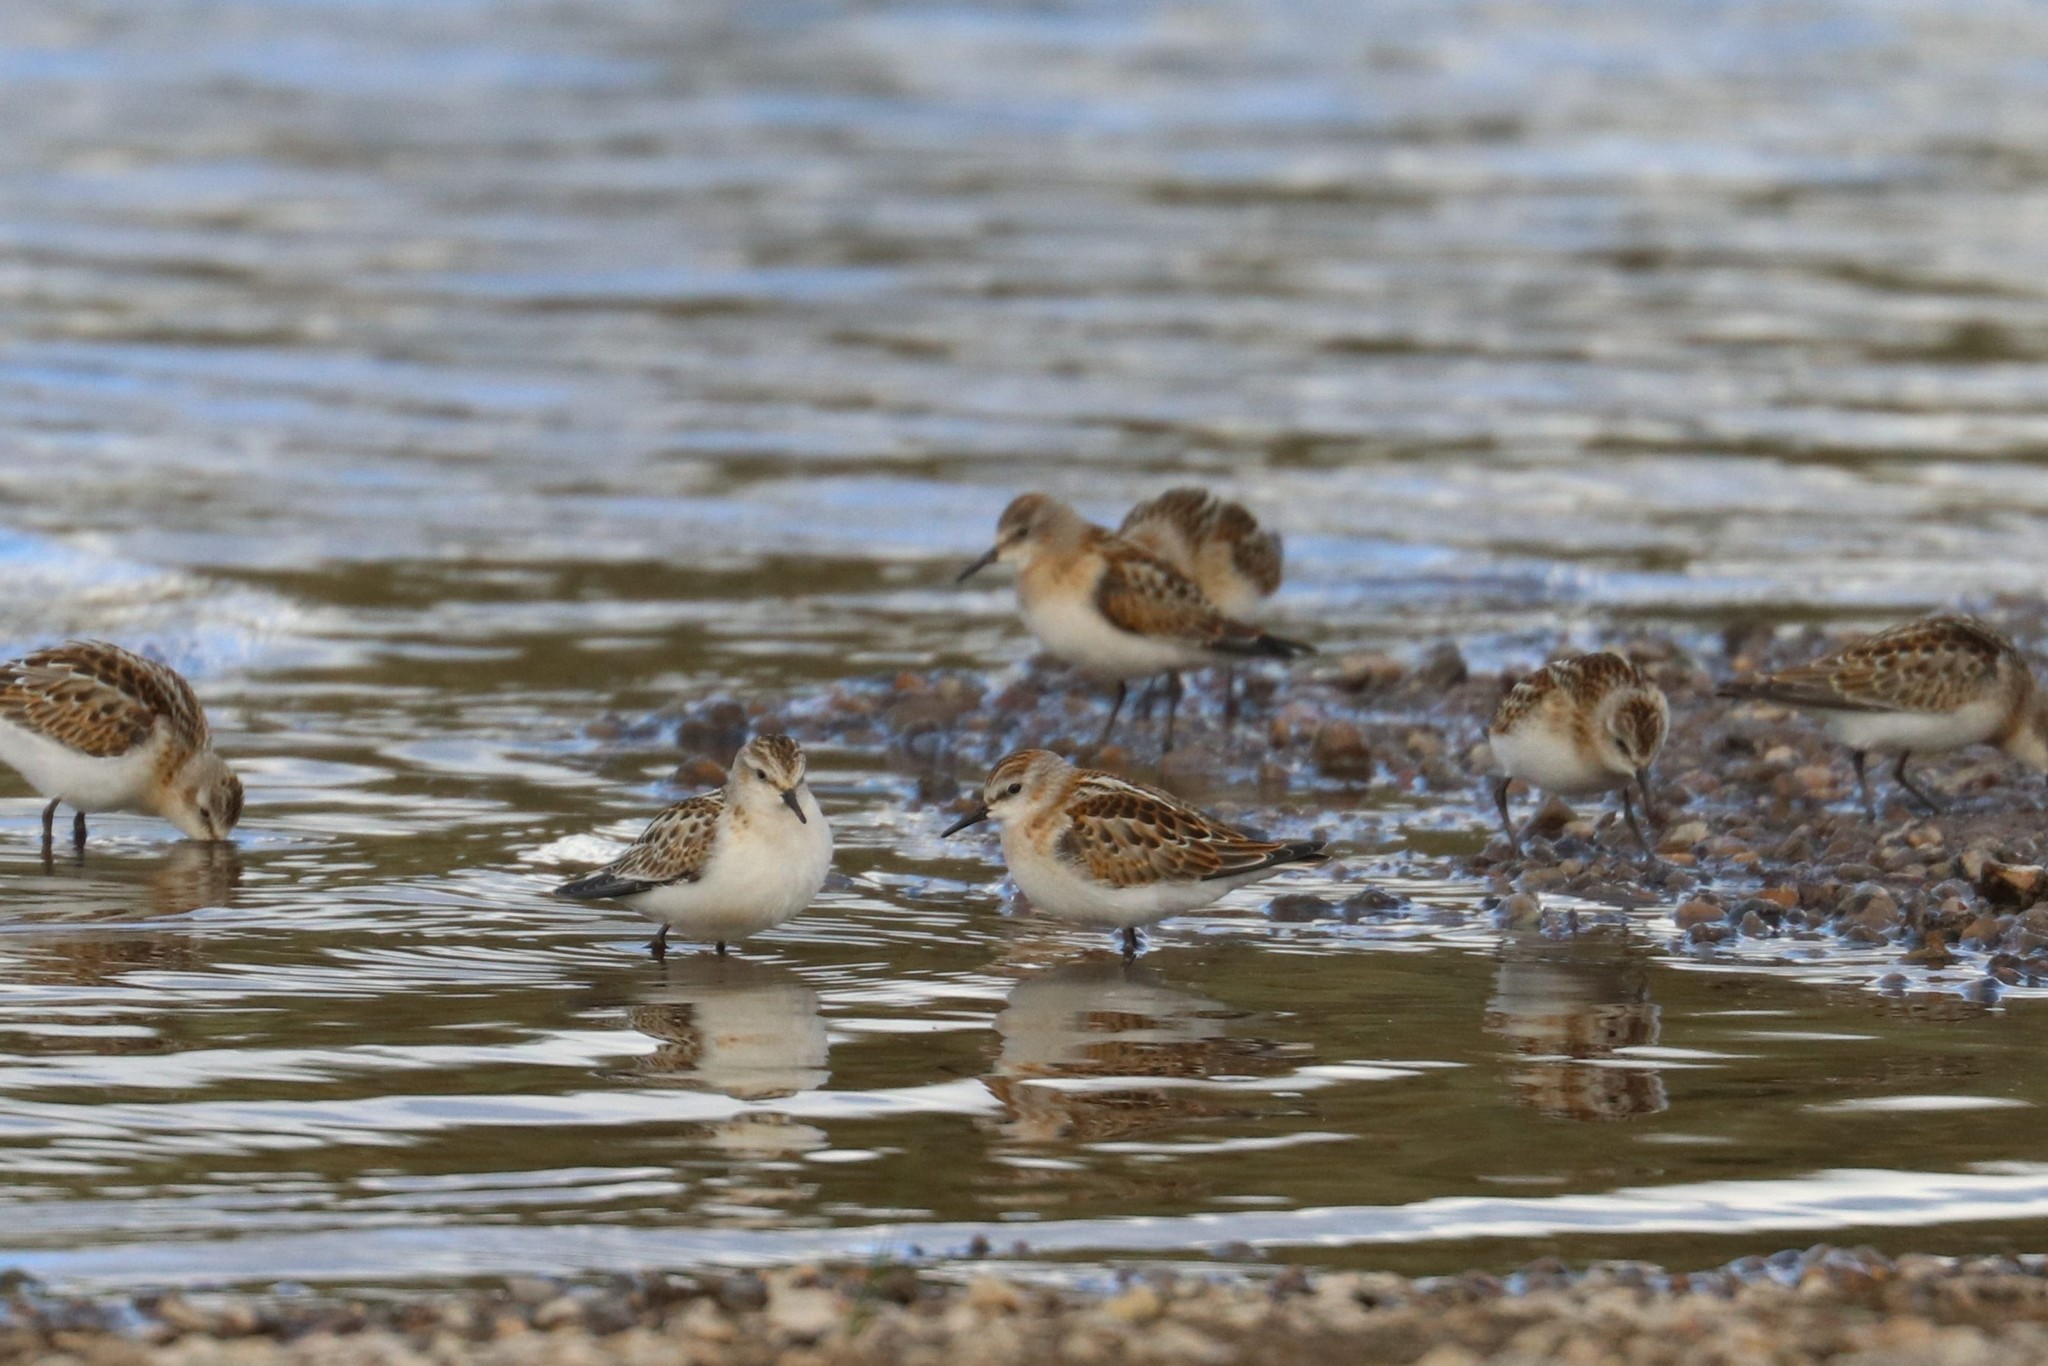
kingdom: Animalia
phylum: Chordata
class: Aves
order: Charadriiformes
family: Scolopacidae
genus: Calidris
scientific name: Calidris minuta
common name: Little stint
